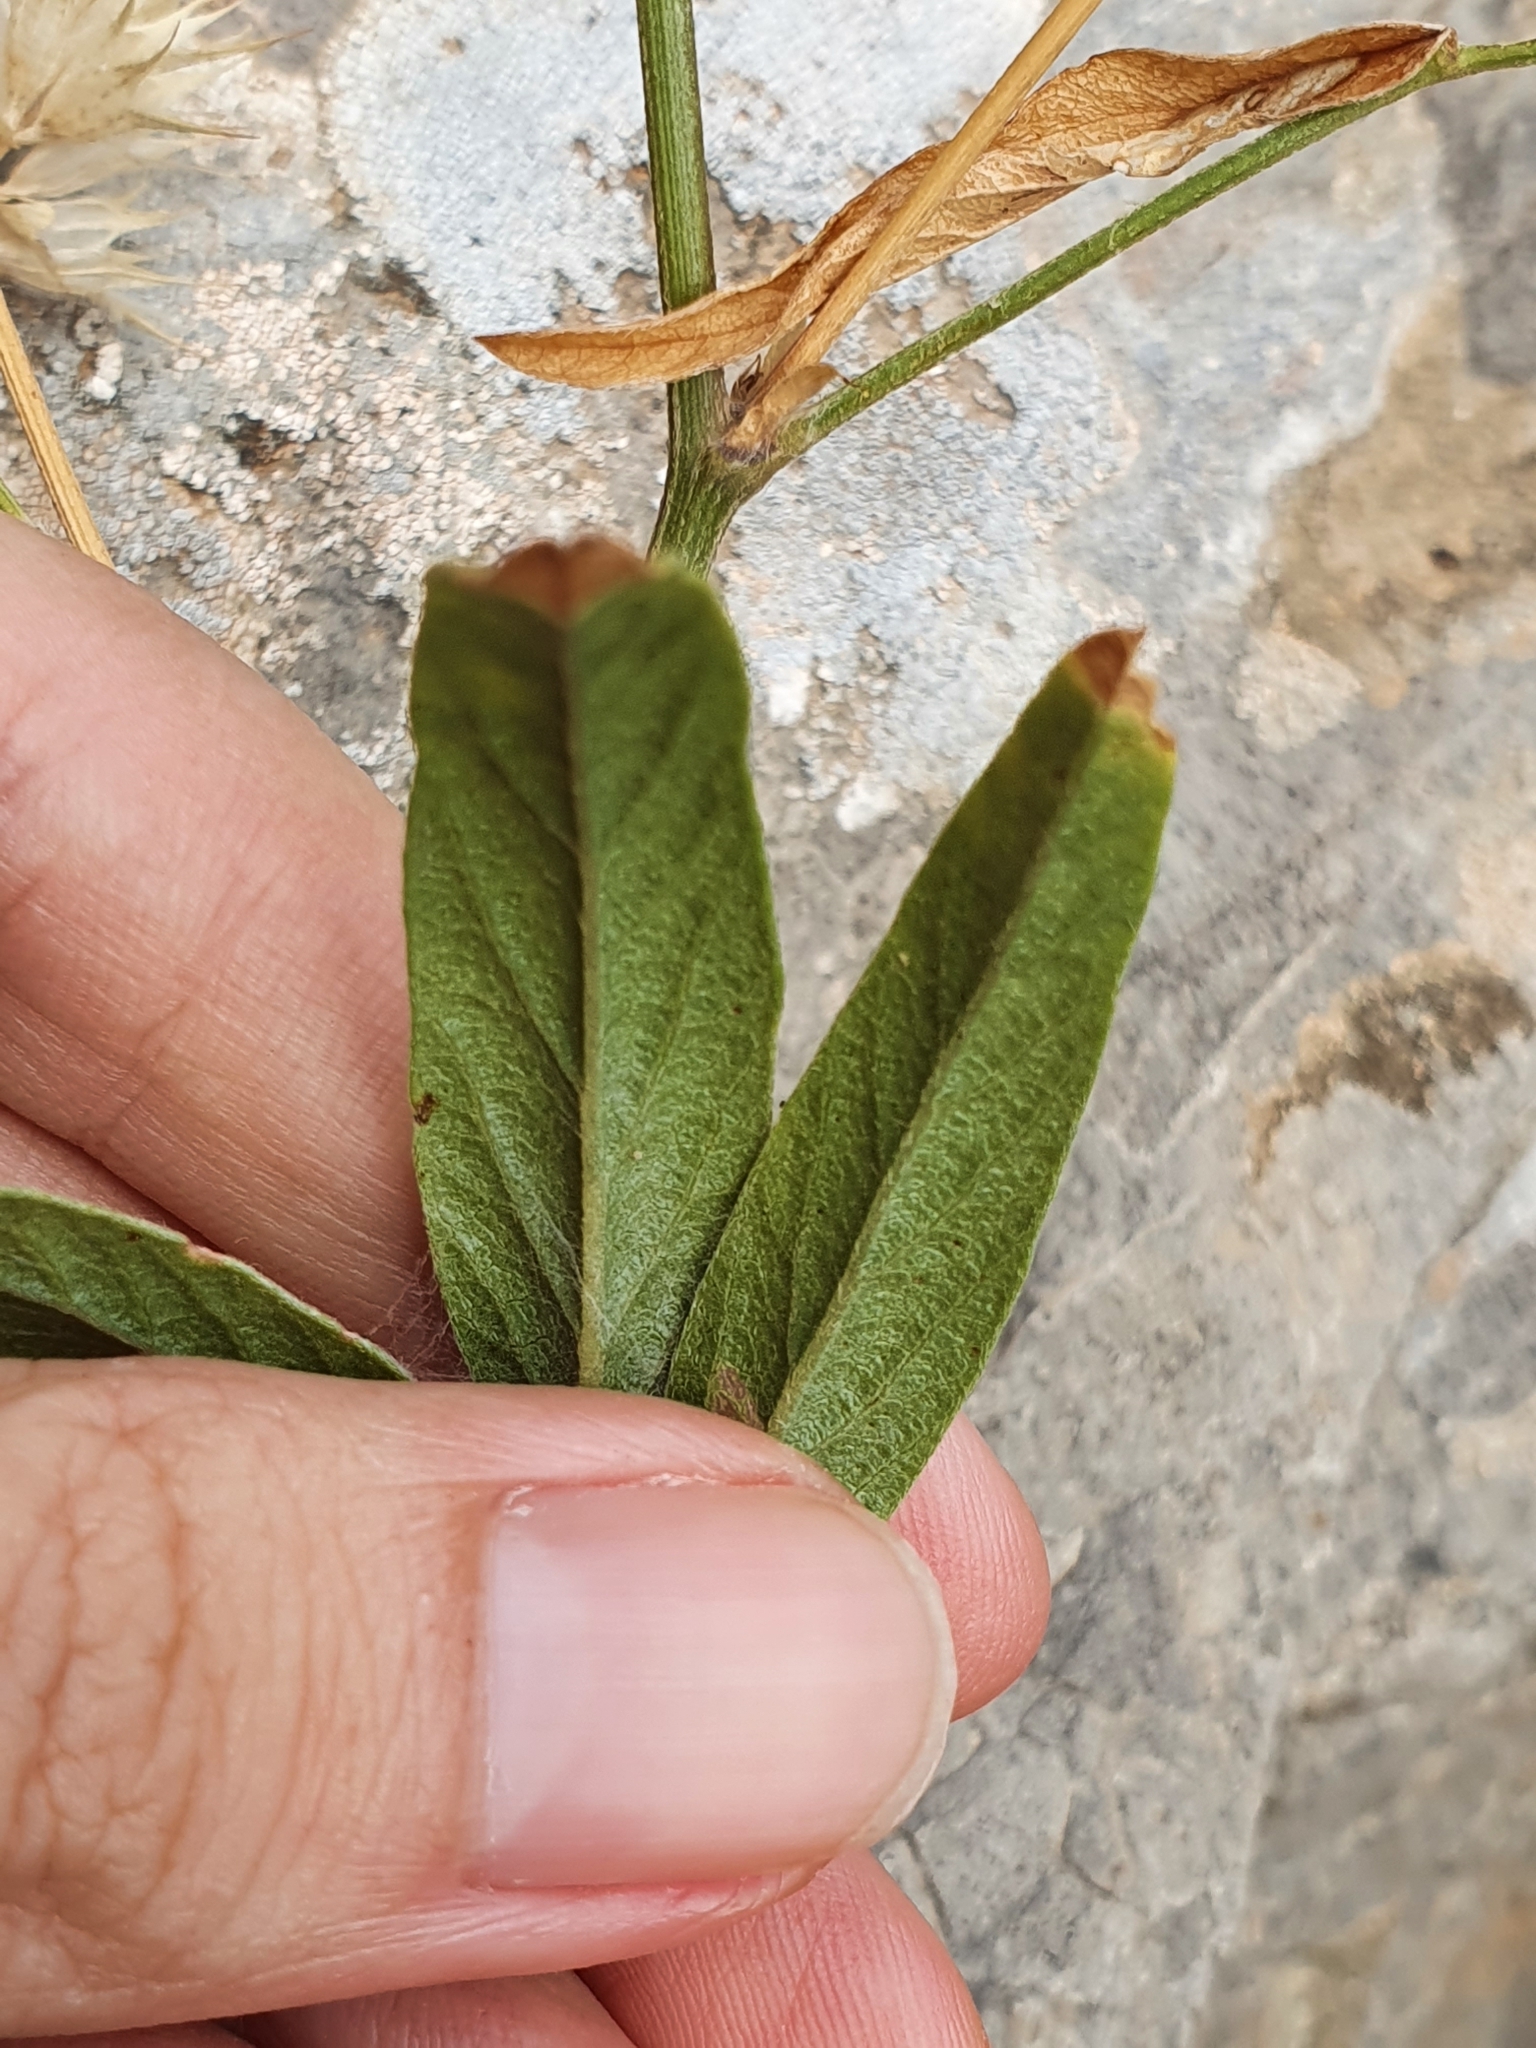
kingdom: Plantae
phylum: Tracheophyta
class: Magnoliopsida
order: Fabales
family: Fabaceae
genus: Bituminaria
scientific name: Bituminaria bituminosa
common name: Arabian pea
